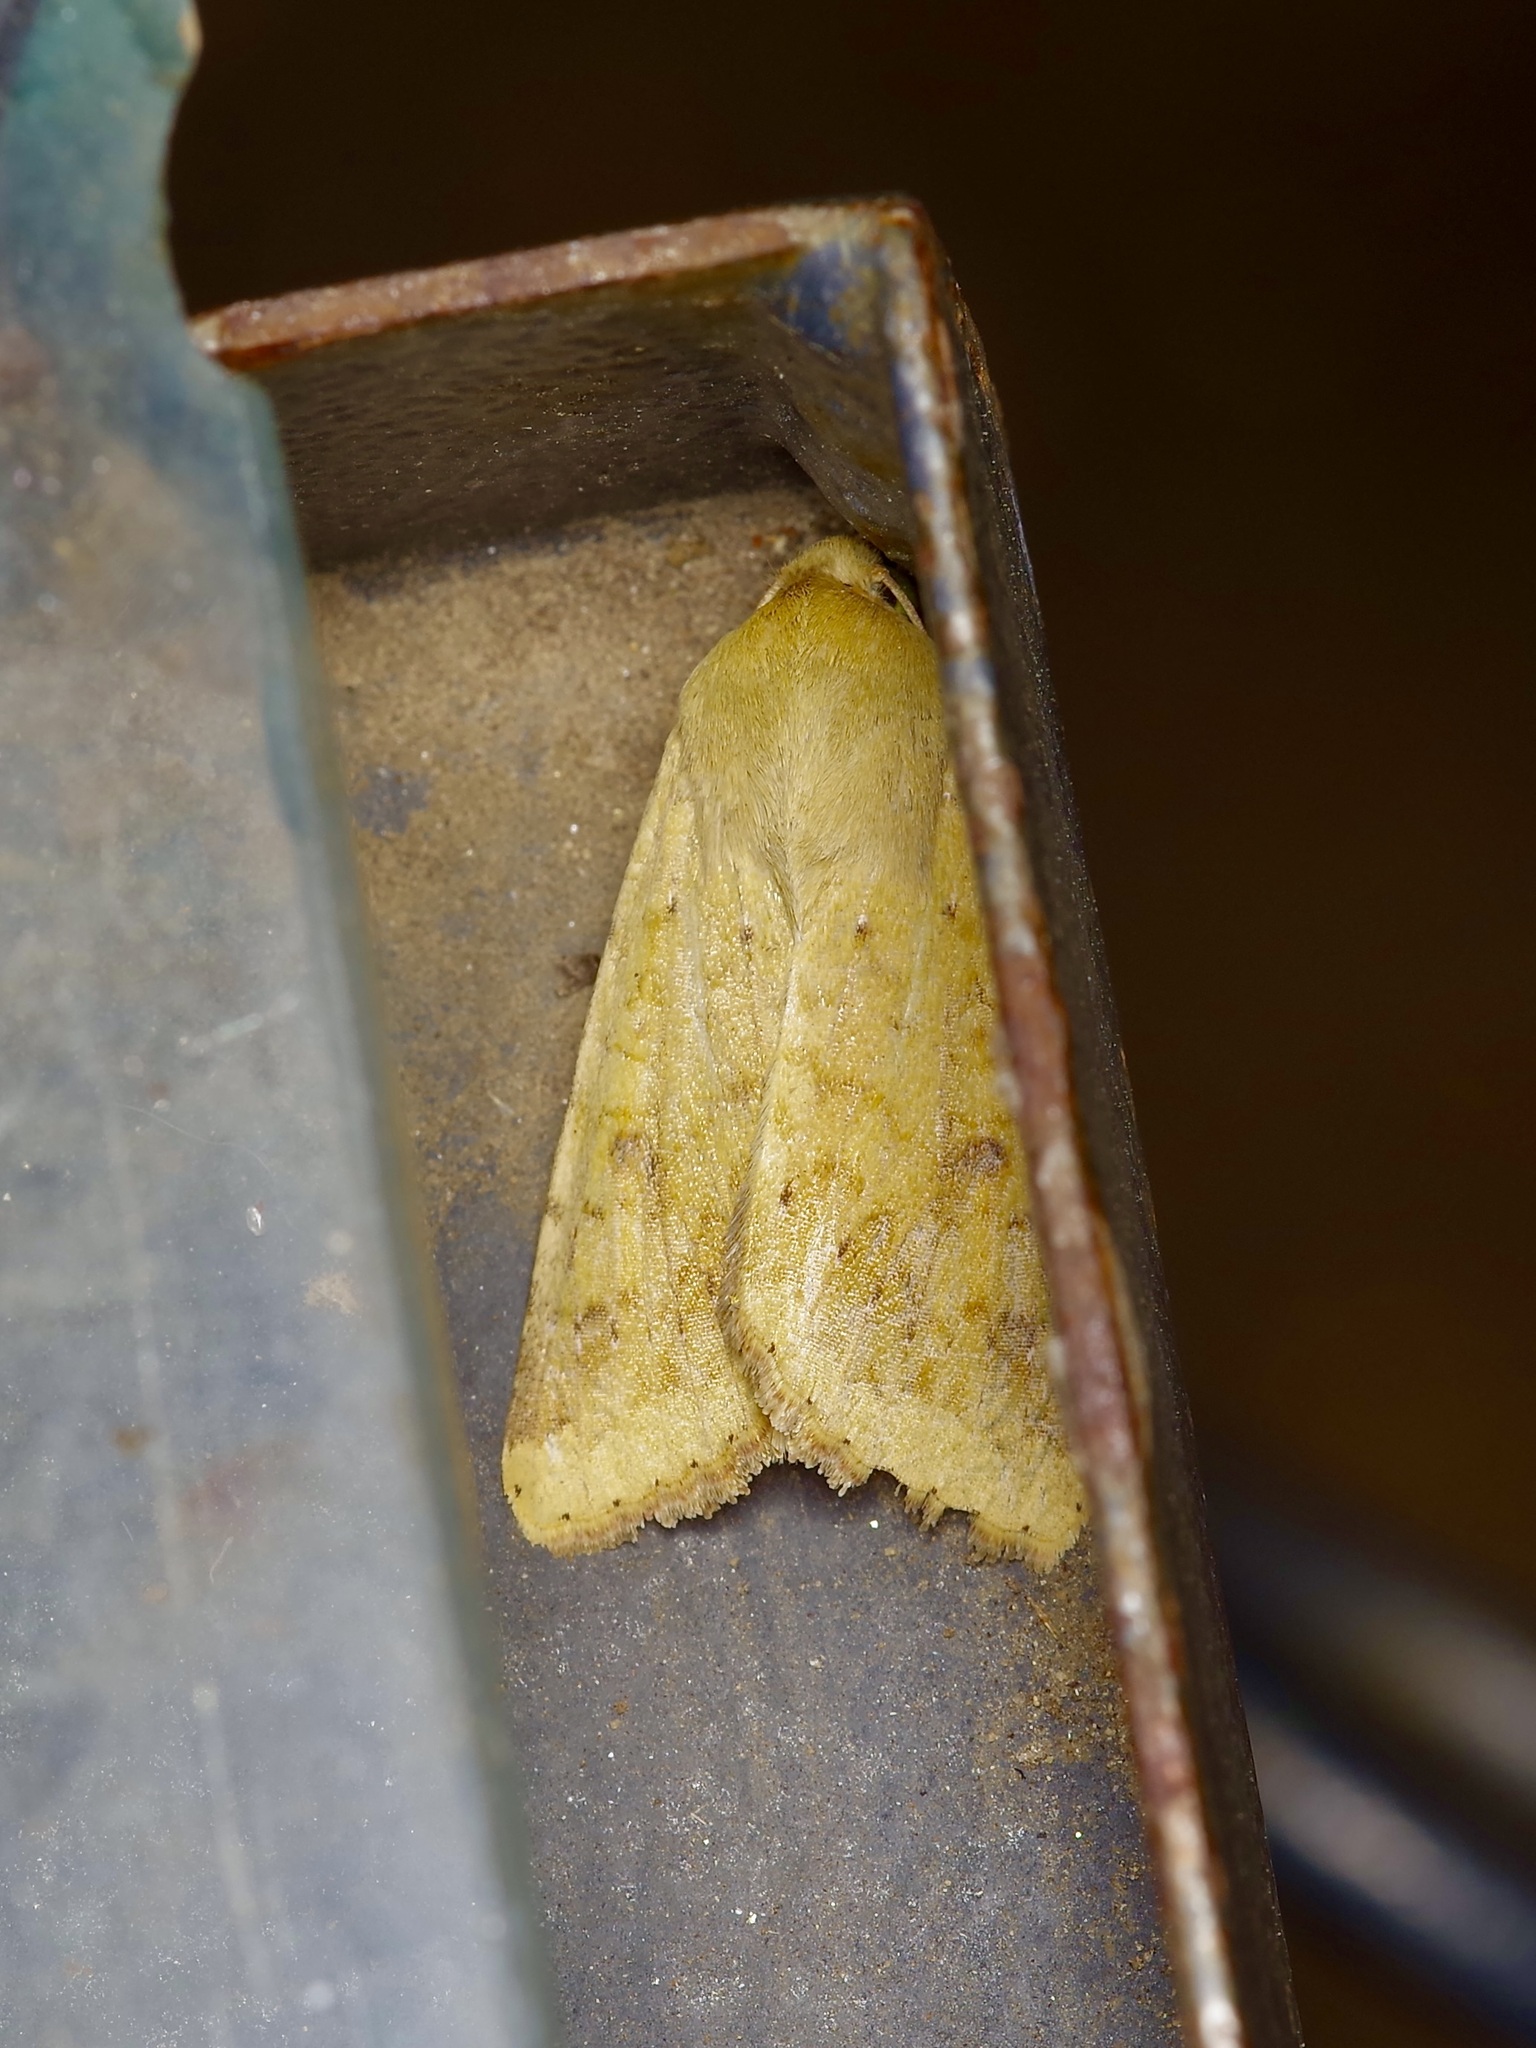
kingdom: Animalia
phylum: Arthropoda
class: Insecta
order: Lepidoptera
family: Noctuidae
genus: Helicoverpa
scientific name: Helicoverpa zea
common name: Bollworm
